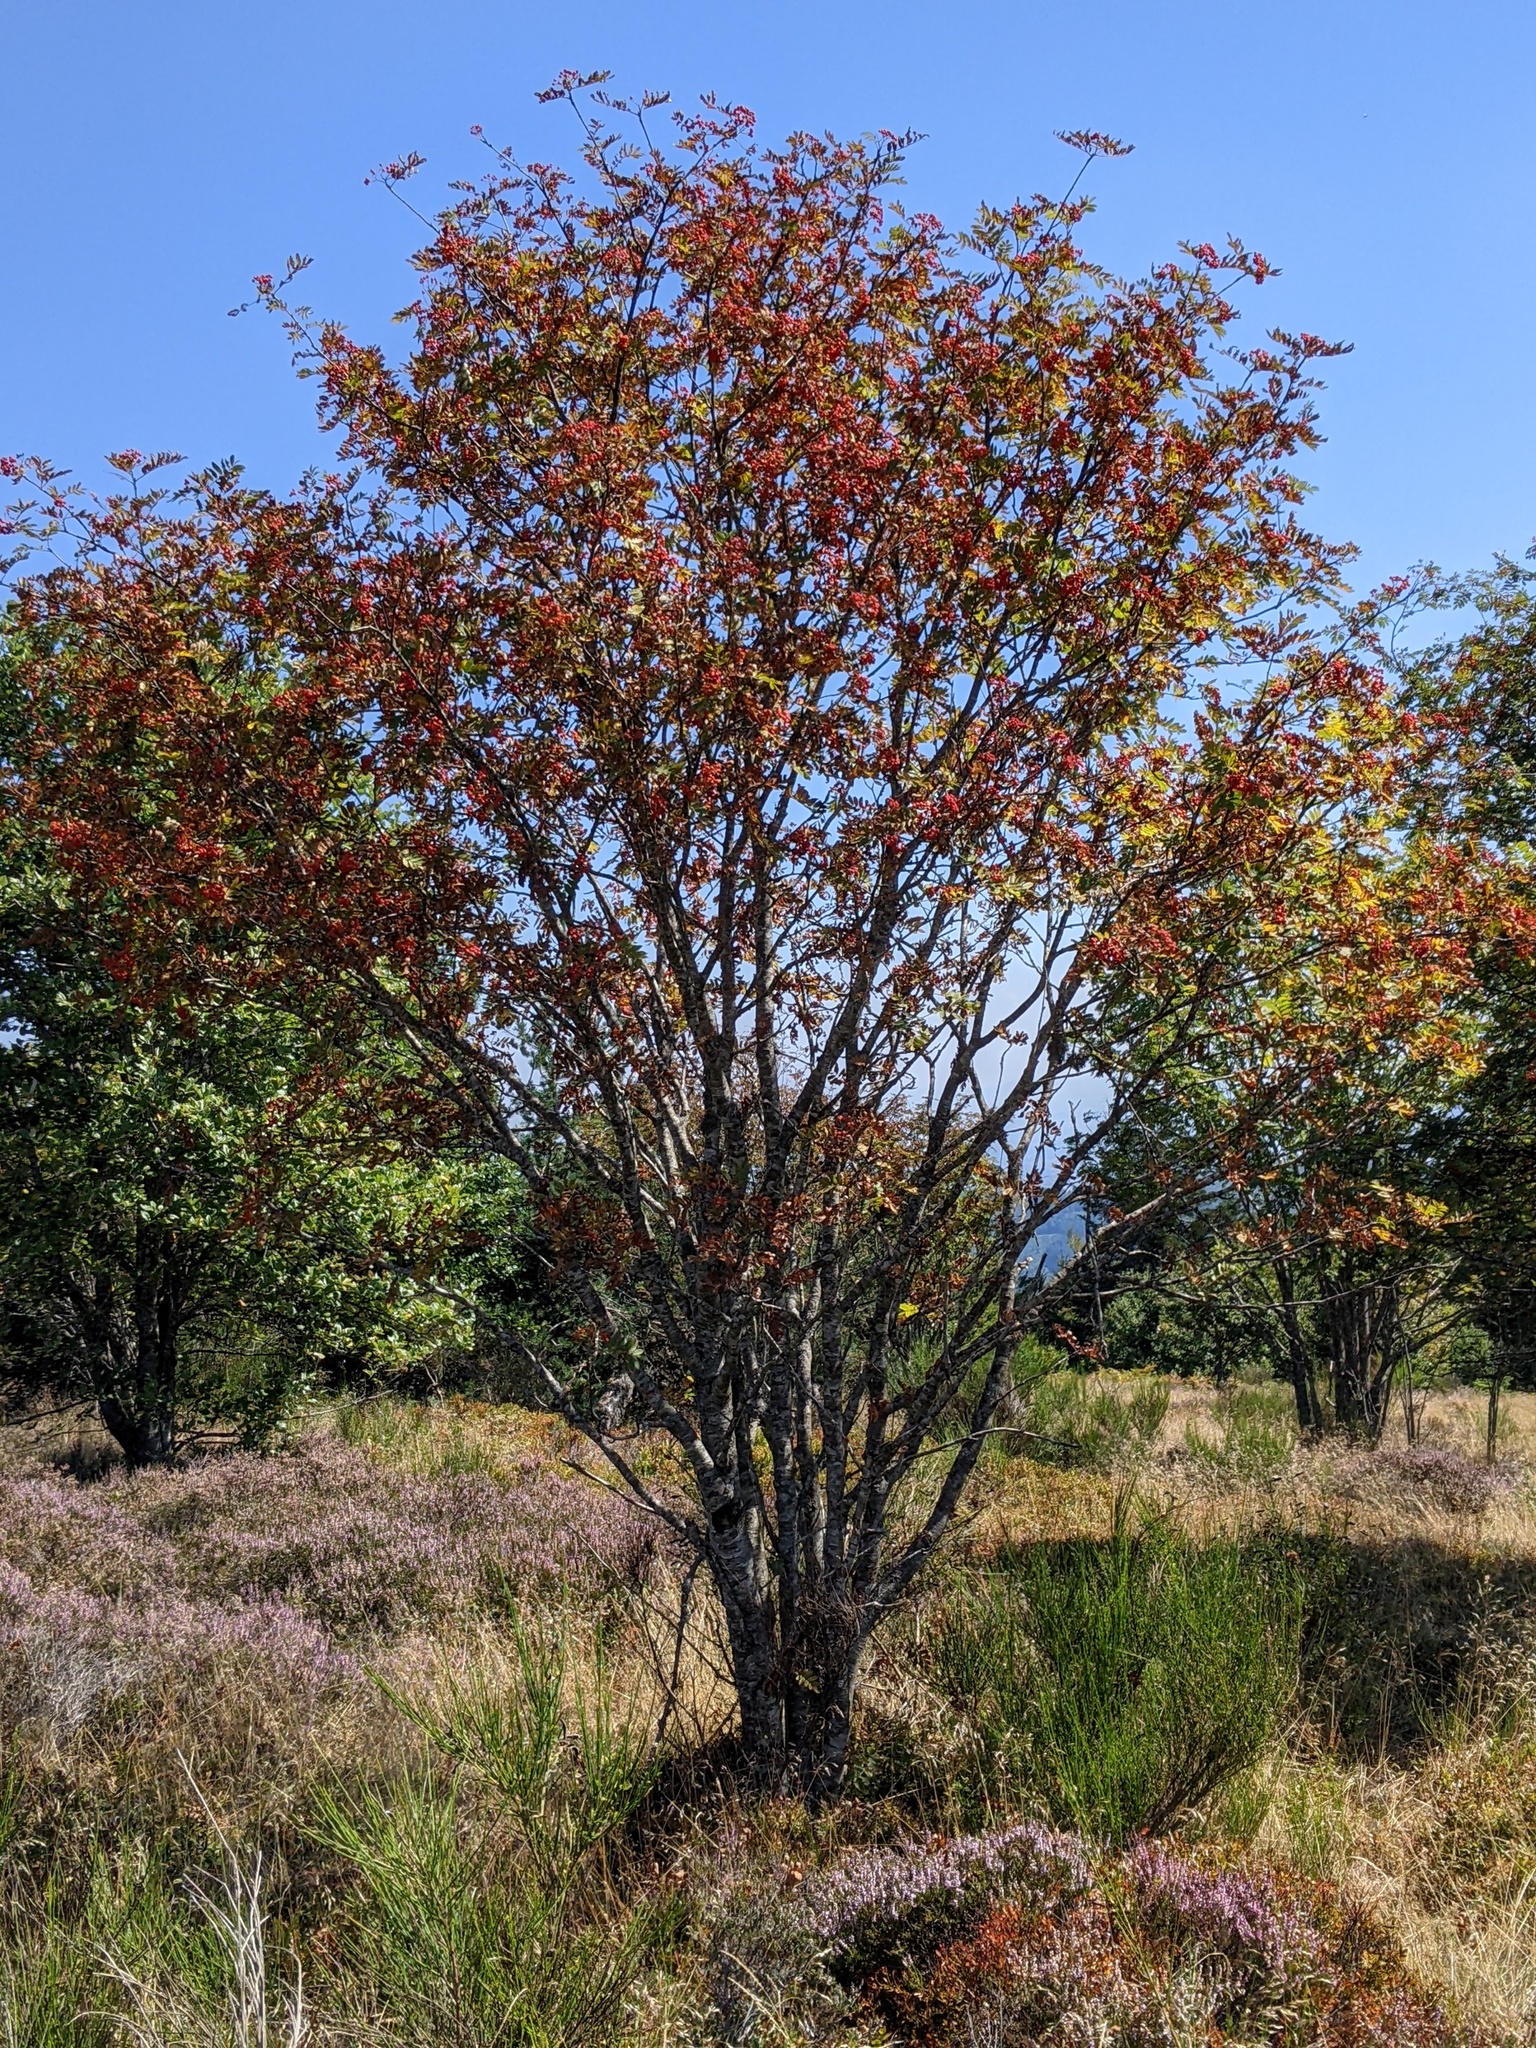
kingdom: Plantae
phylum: Tracheophyta
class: Magnoliopsida
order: Rosales
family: Rosaceae
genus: Sorbus
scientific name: Sorbus aucuparia
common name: Rowan
